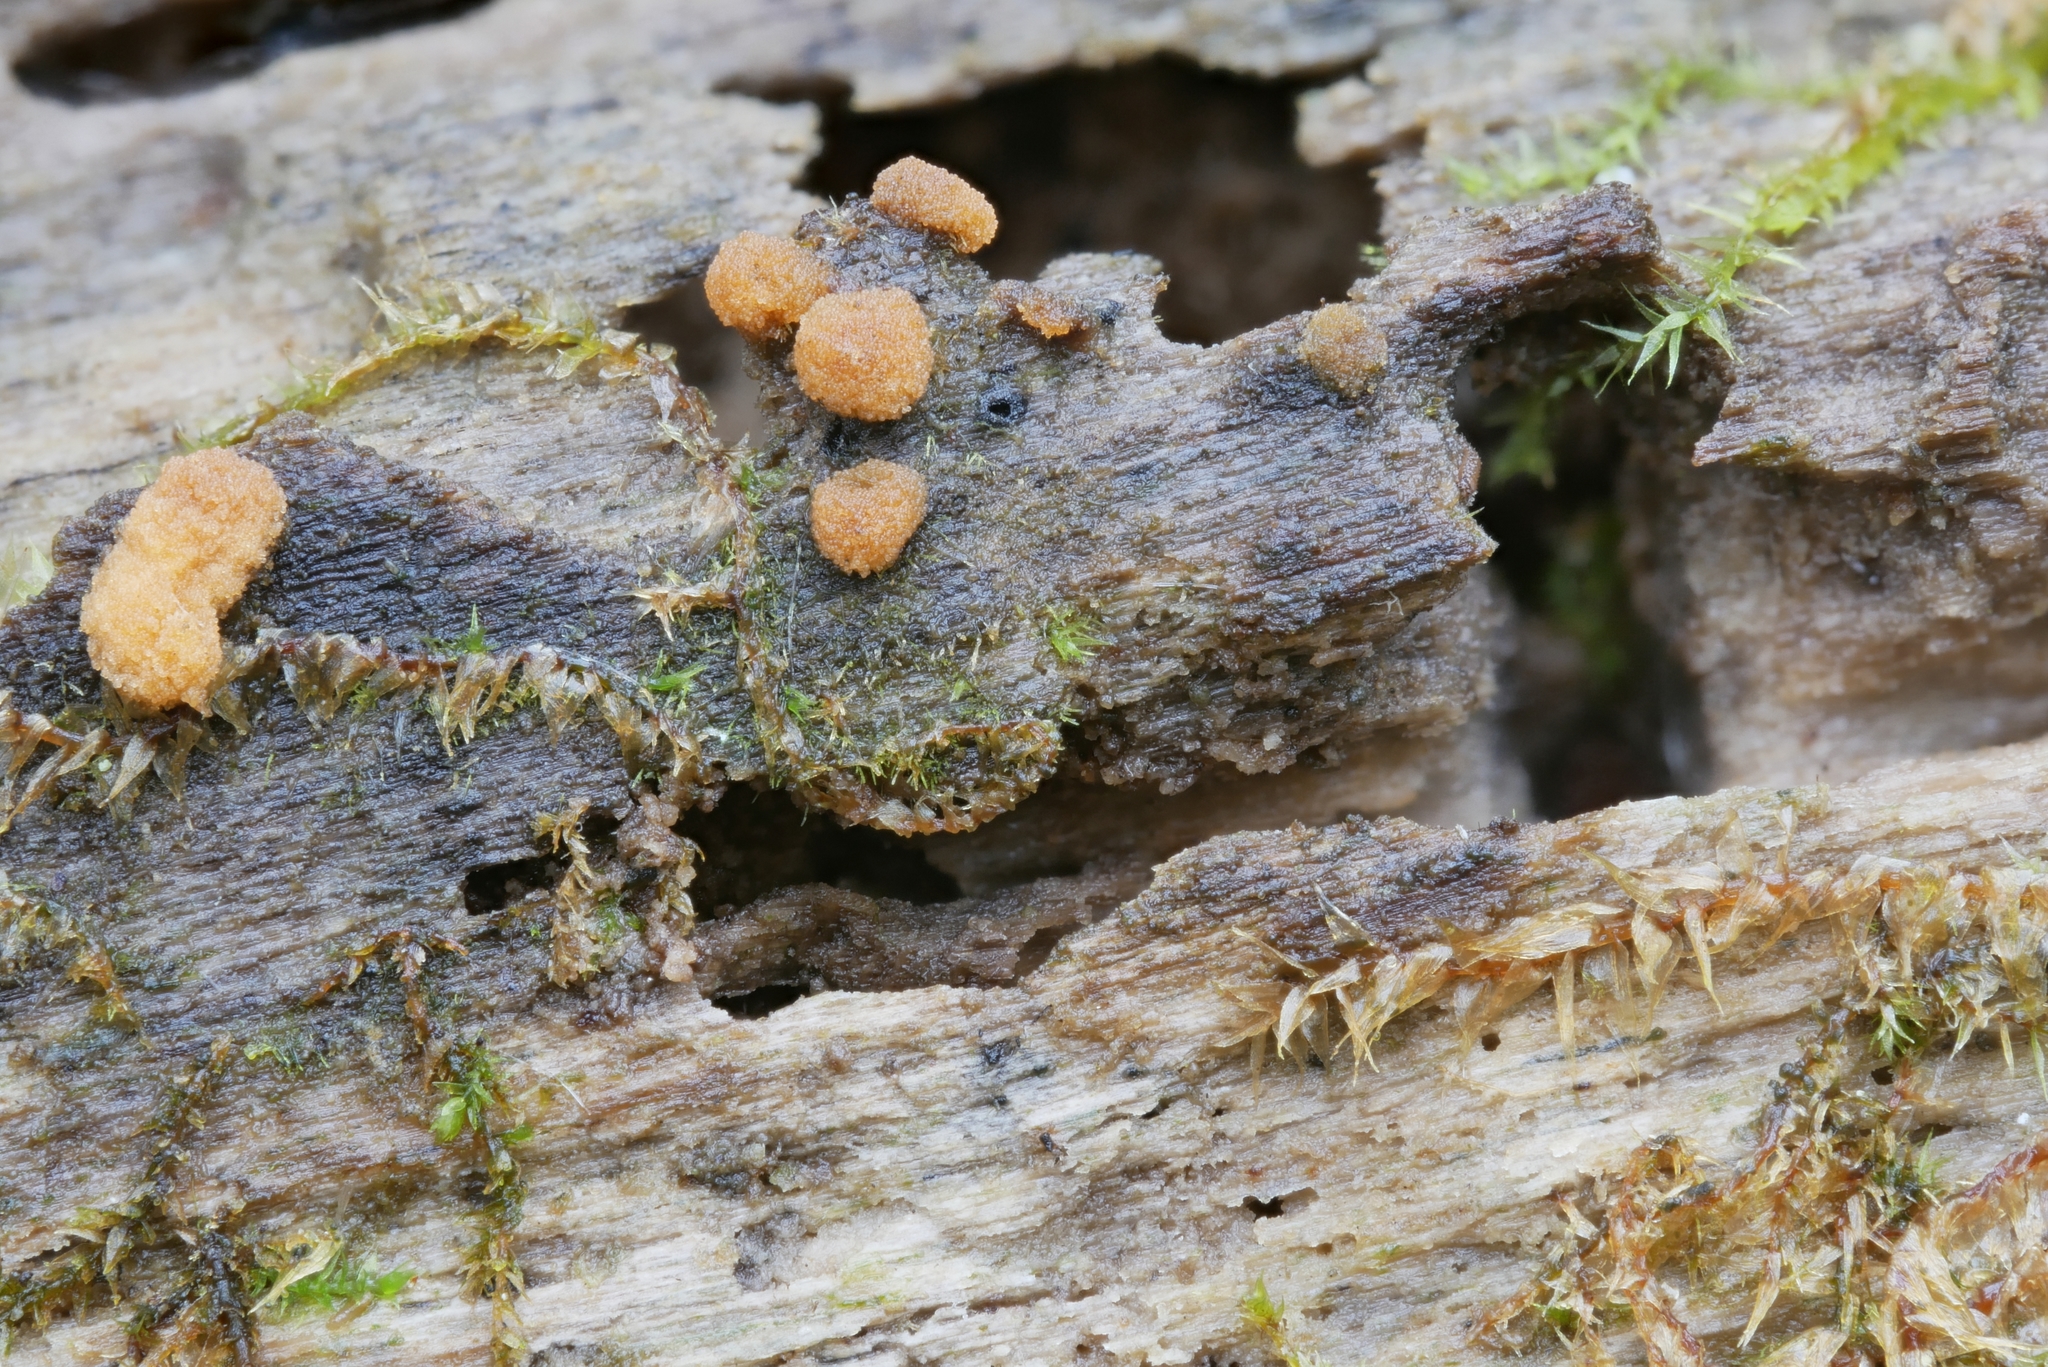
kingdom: Fungi
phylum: Ascomycota
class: Pezizomycetes
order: Pezizales
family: Pyronemataceae
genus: Sphaerosporium
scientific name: Sphaerosporium lignatile
